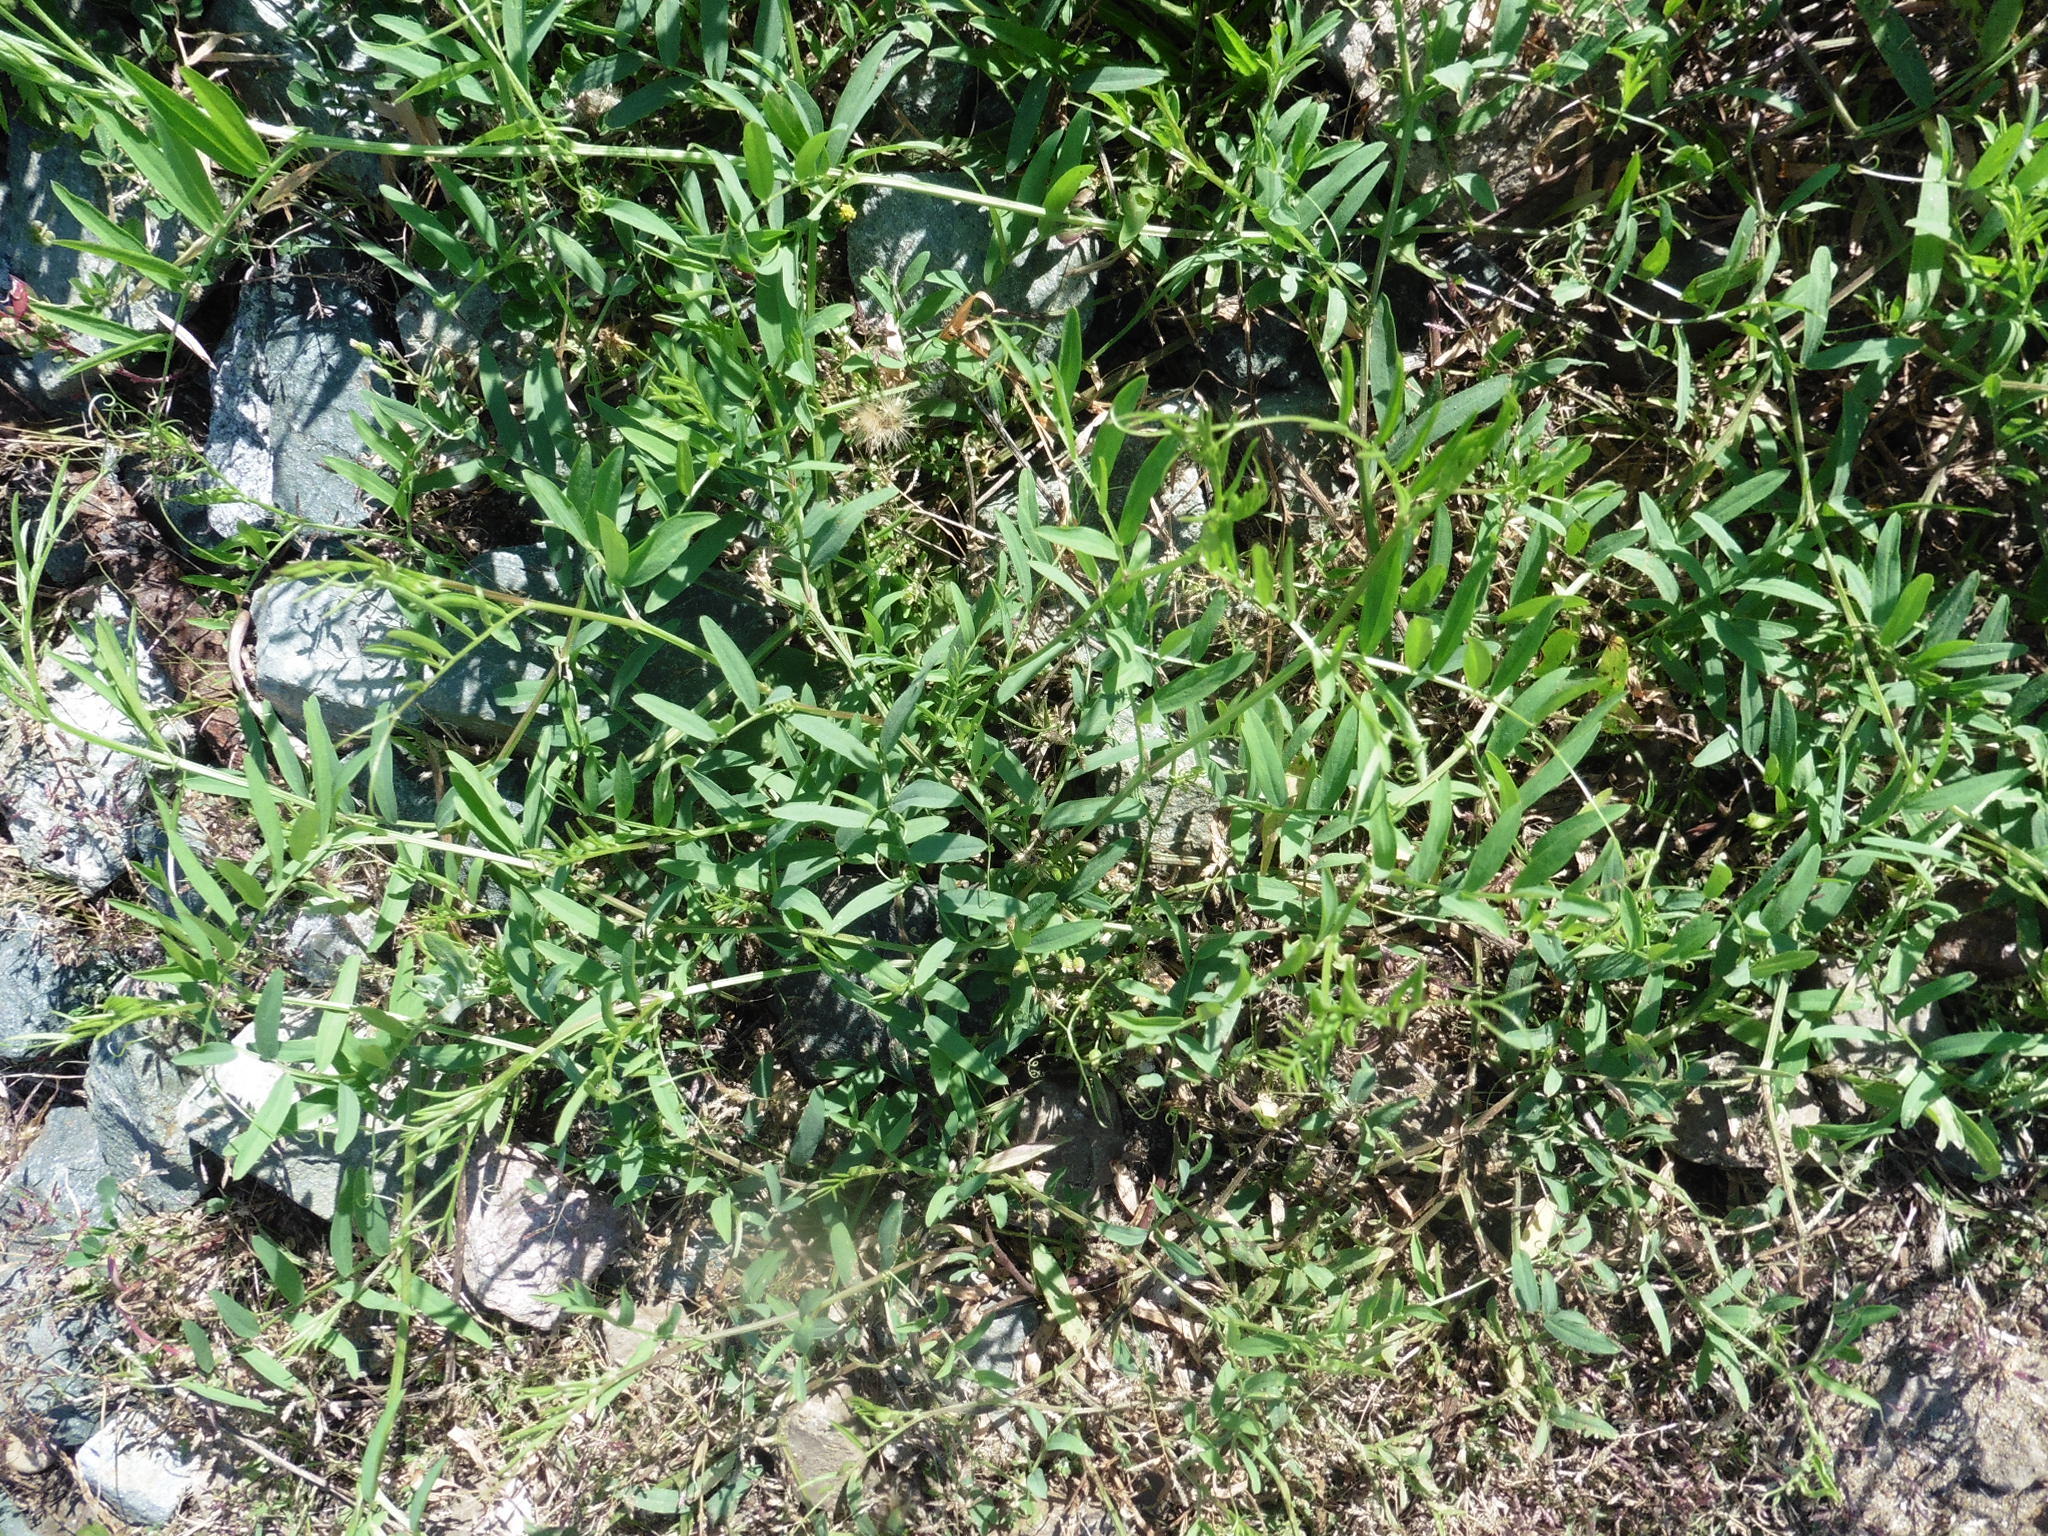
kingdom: Plantae
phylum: Tracheophyta
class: Magnoliopsida
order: Fabales
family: Fabaceae
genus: Vicia
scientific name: Vicia biennis
